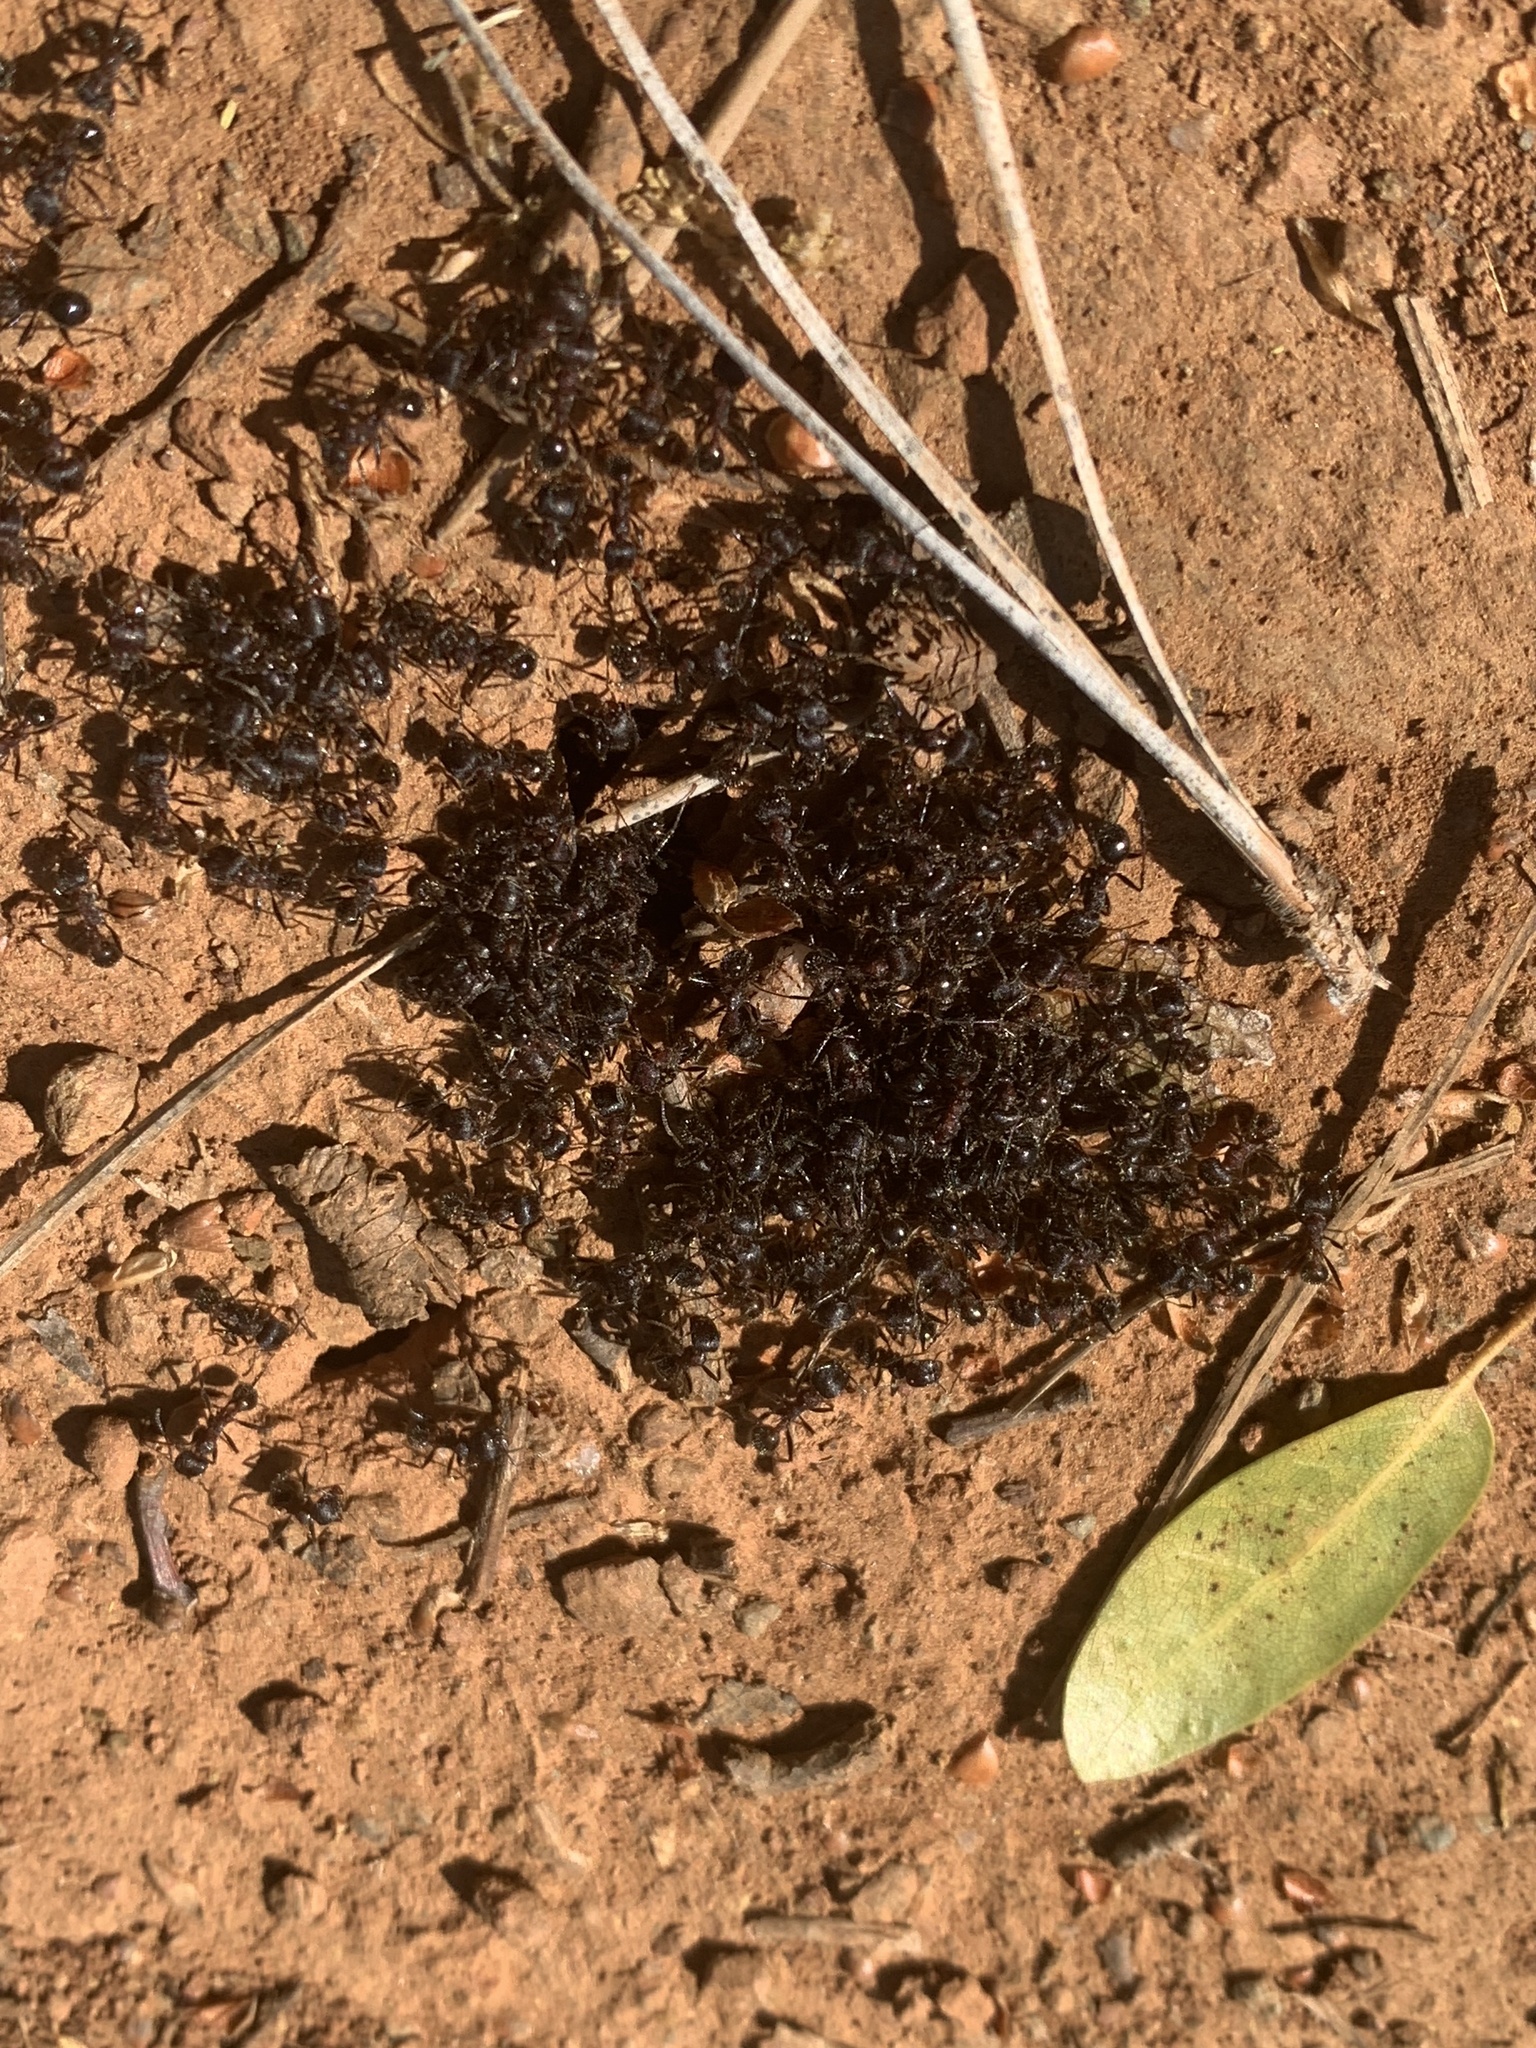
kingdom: Animalia
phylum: Arthropoda
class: Insecta
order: Hymenoptera
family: Formicidae
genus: Veromessor
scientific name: Veromessor andrei
